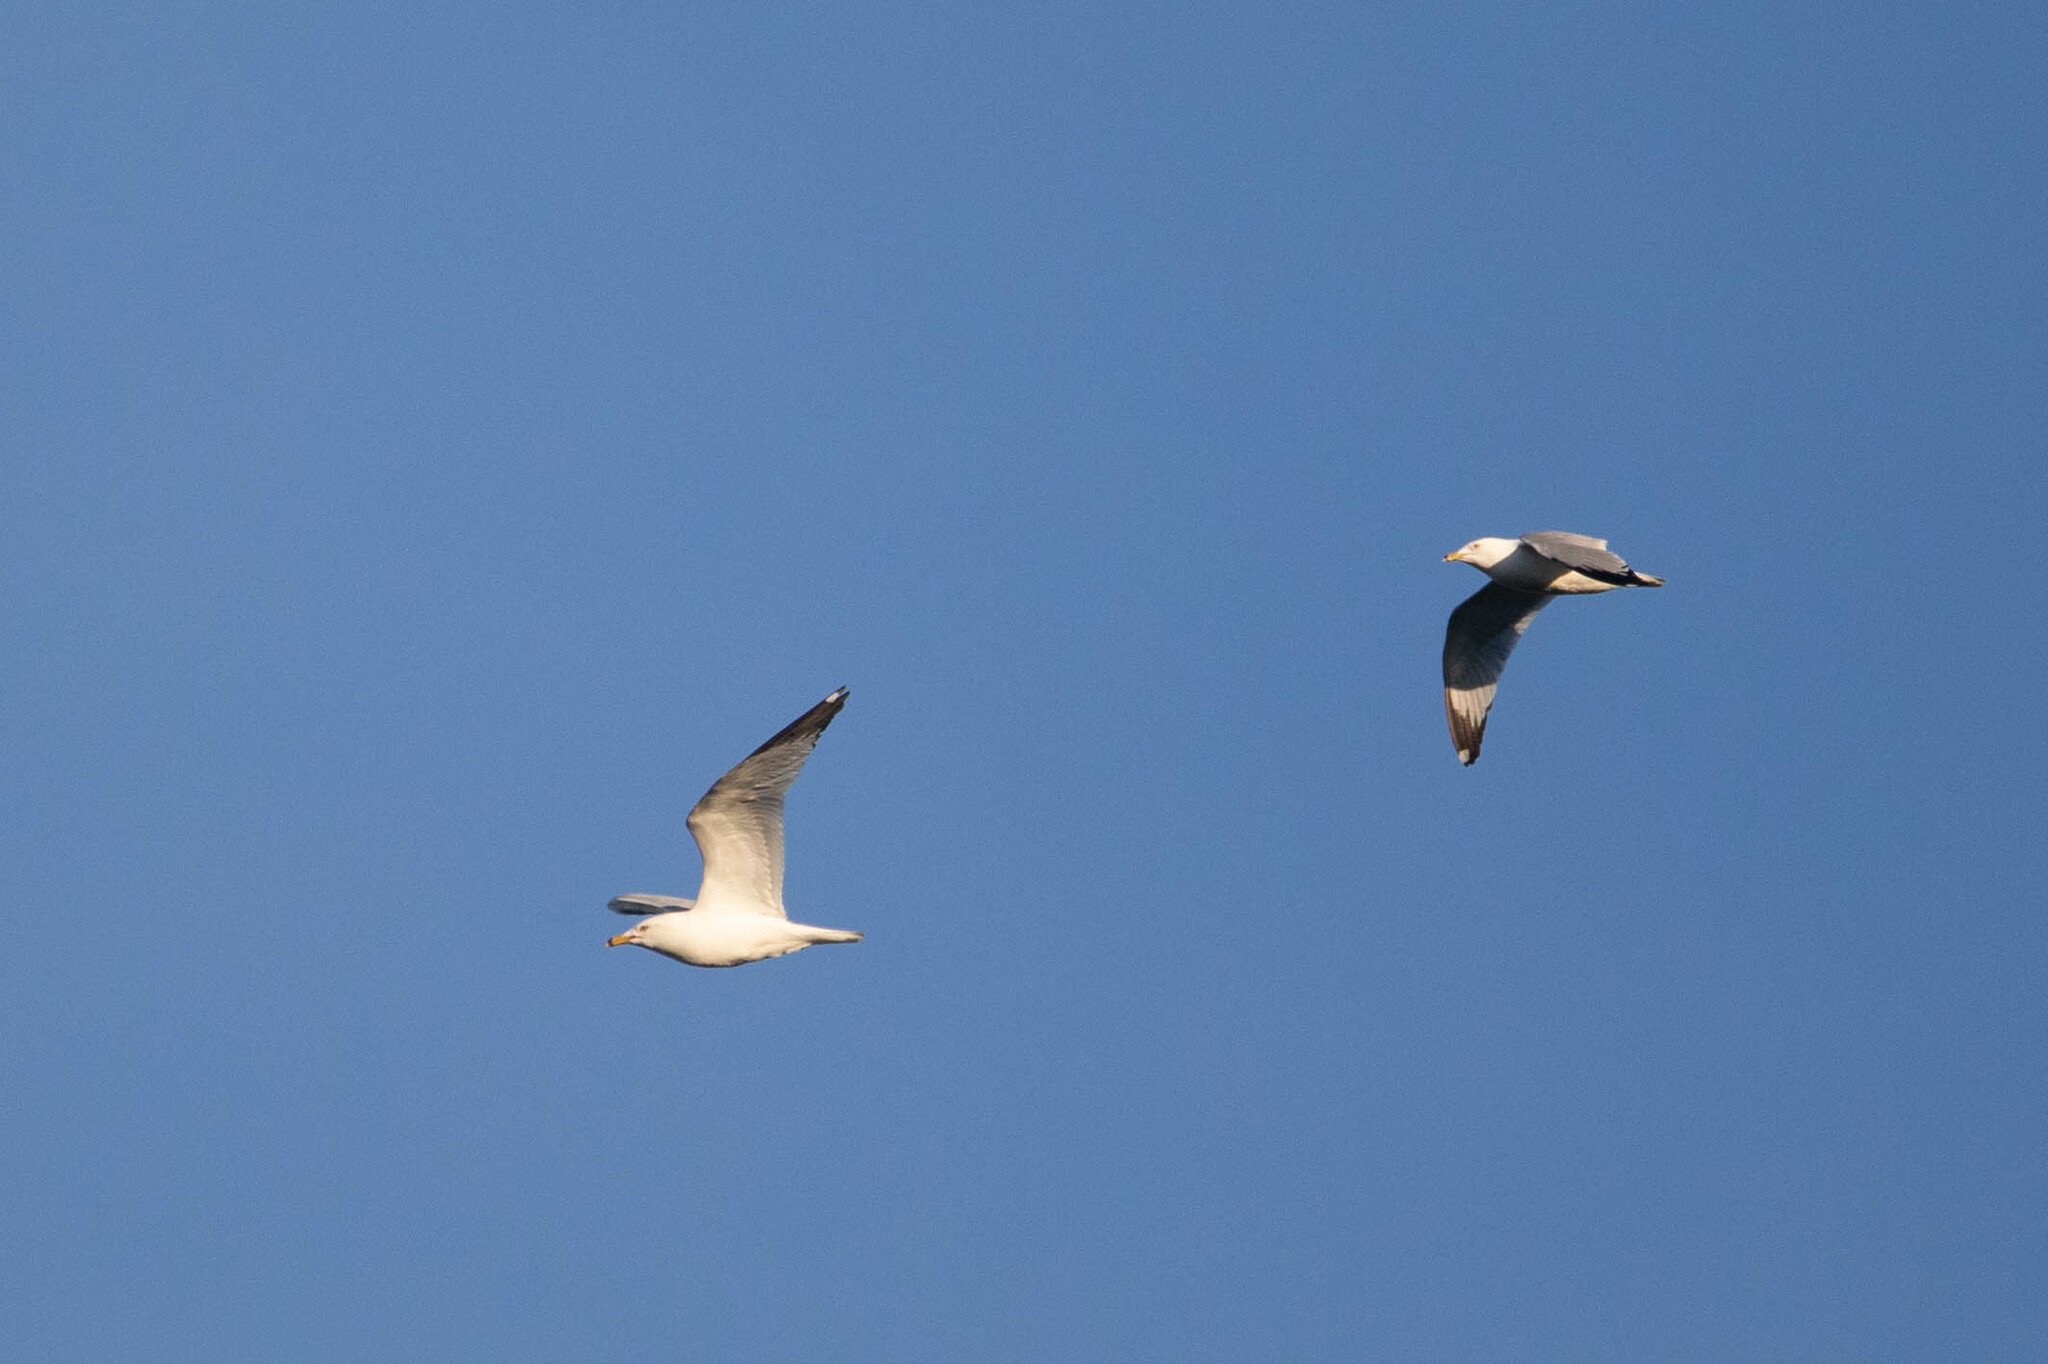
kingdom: Animalia
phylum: Chordata
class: Aves
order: Charadriiformes
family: Laridae
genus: Larus
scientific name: Larus delawarensis
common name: Ring-billed gull
